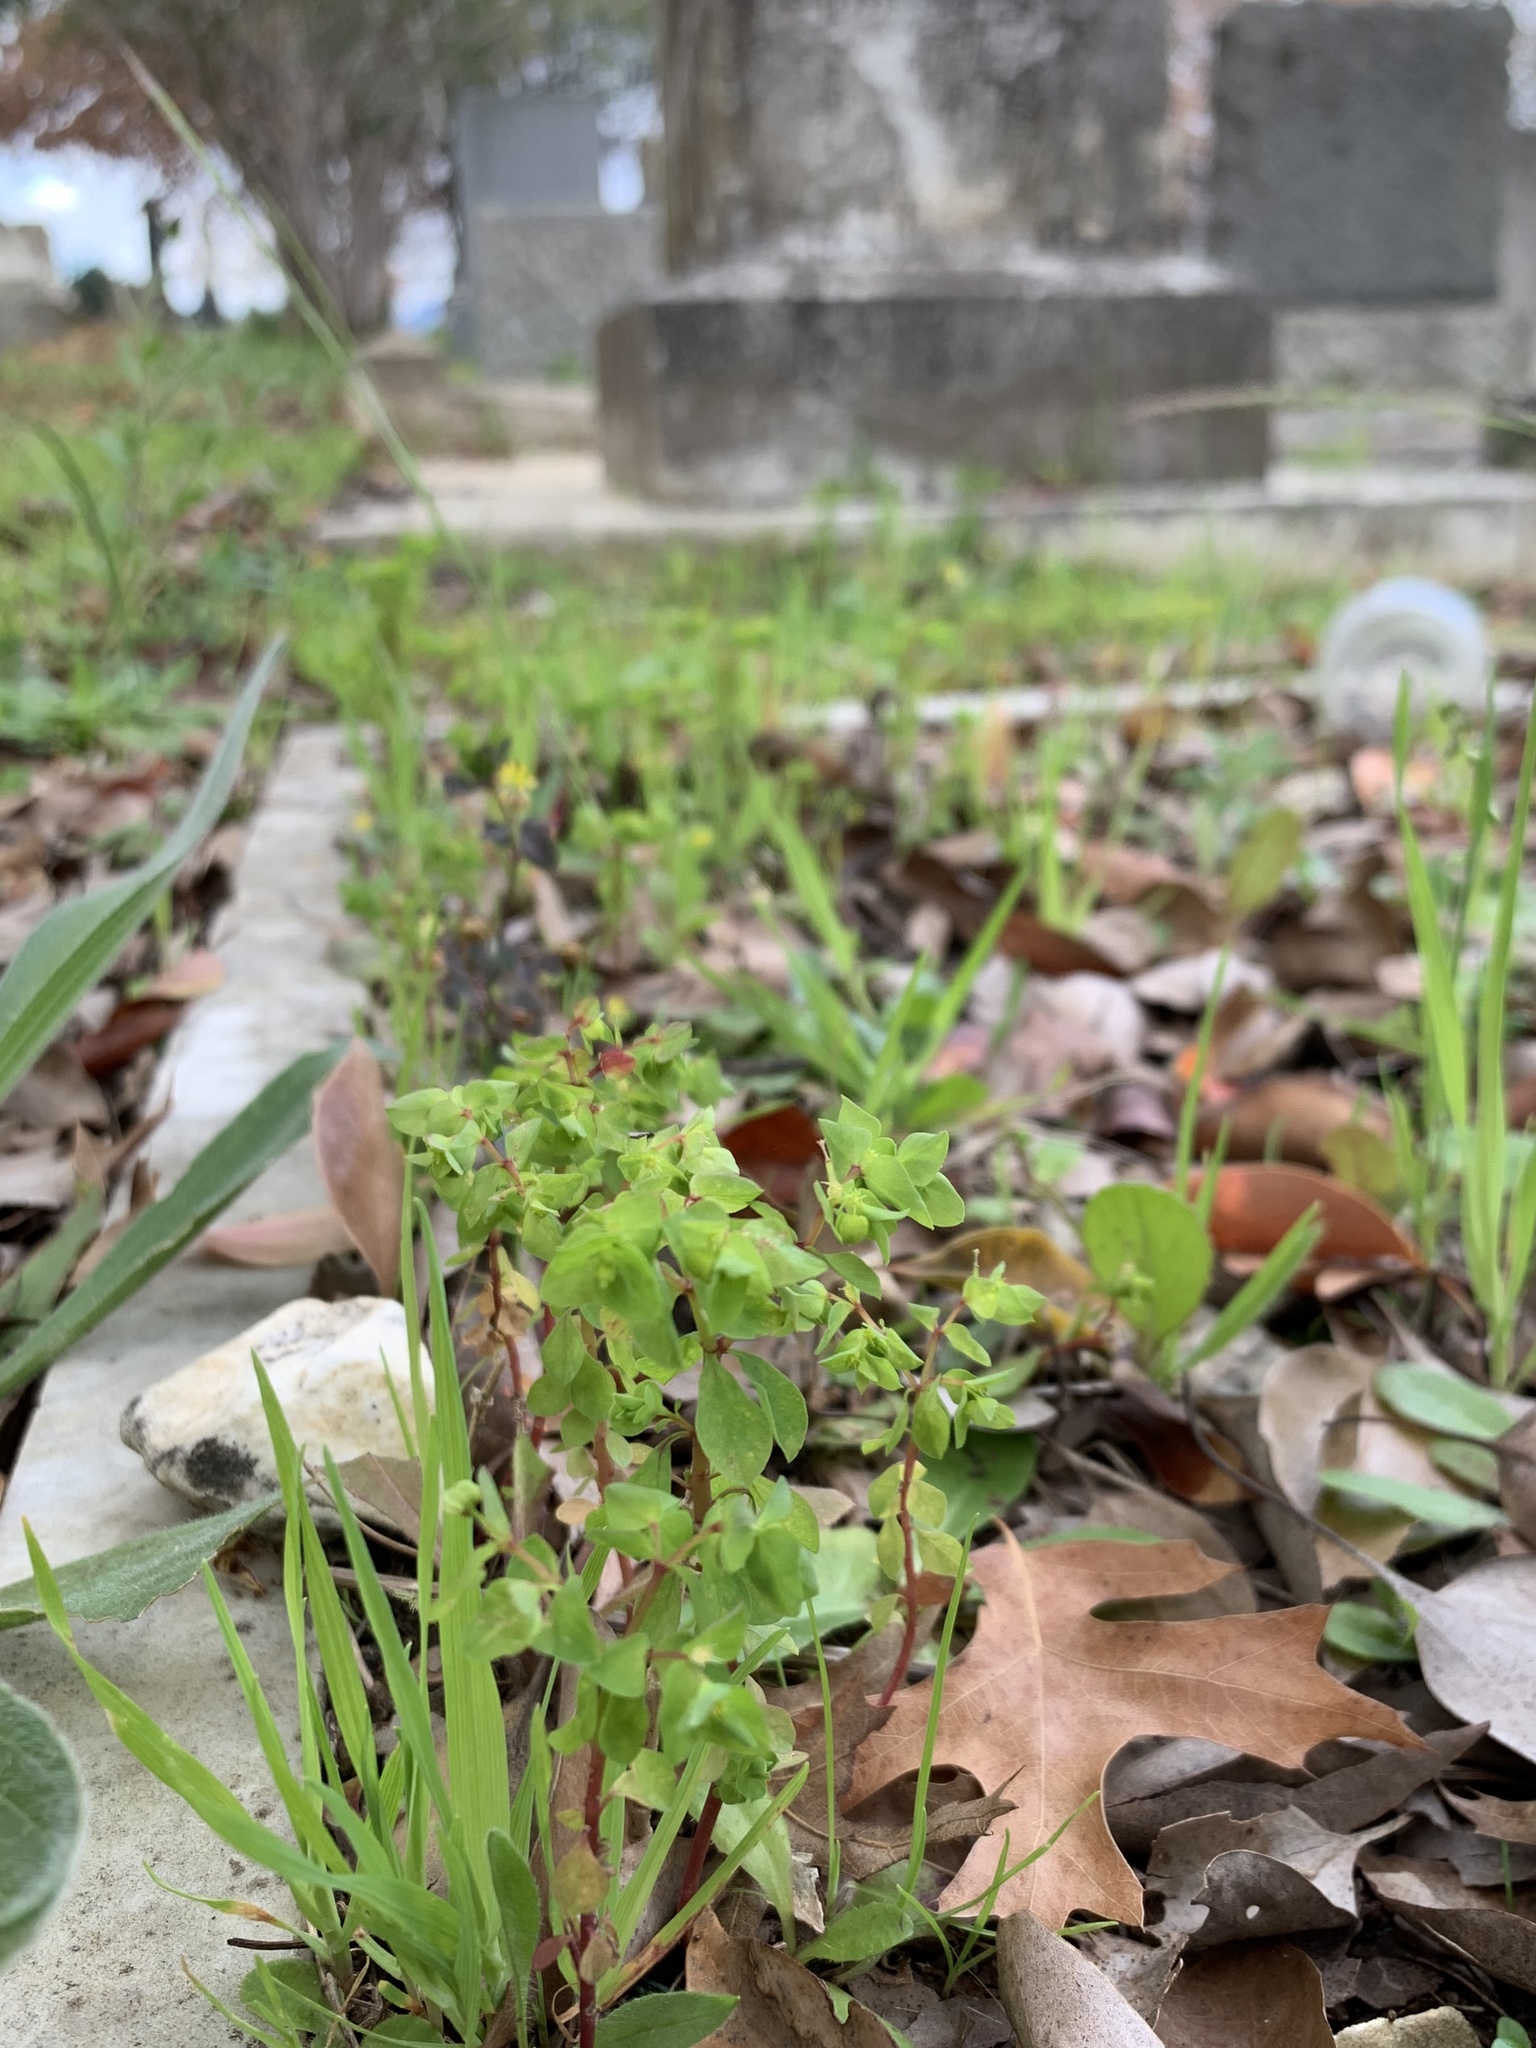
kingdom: Plantae
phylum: Tracheophyta
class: Magnoliopsida
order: Malpighiales
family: Euphorbiaceae
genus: Euphorbia
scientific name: Euphorbia peplus
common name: Petty spurge
